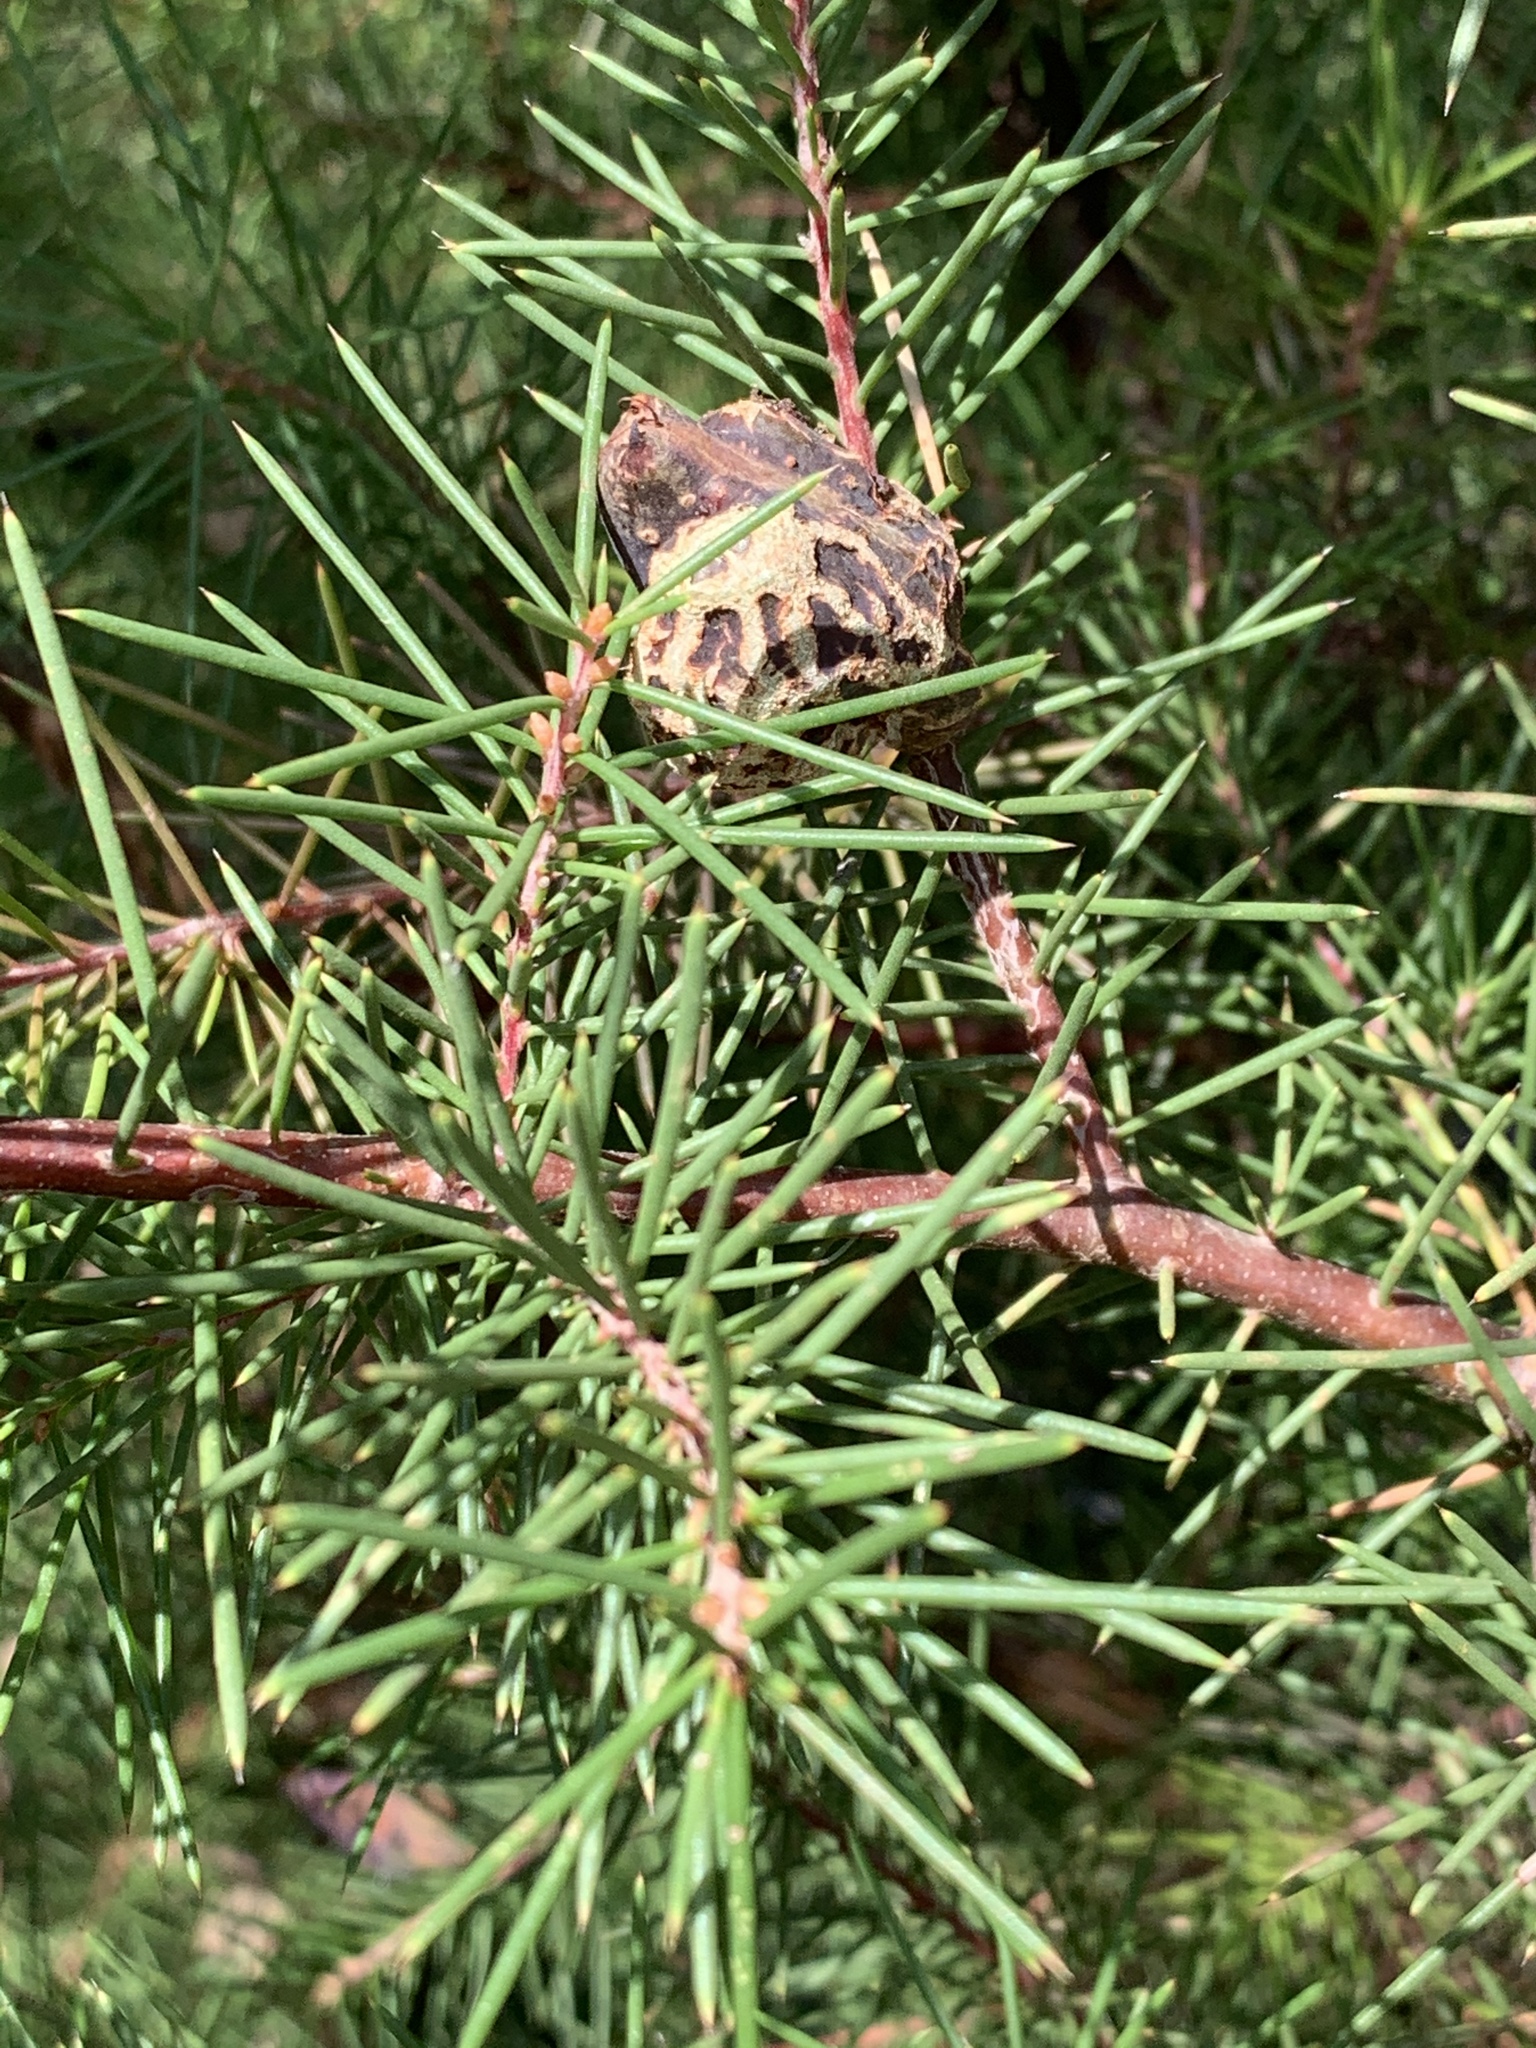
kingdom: Plantae
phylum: Tracheophyta
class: Magnoliopsida
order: Proteales
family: Proteaceae
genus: Hakea
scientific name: Hakea sericea
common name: Needle bush
